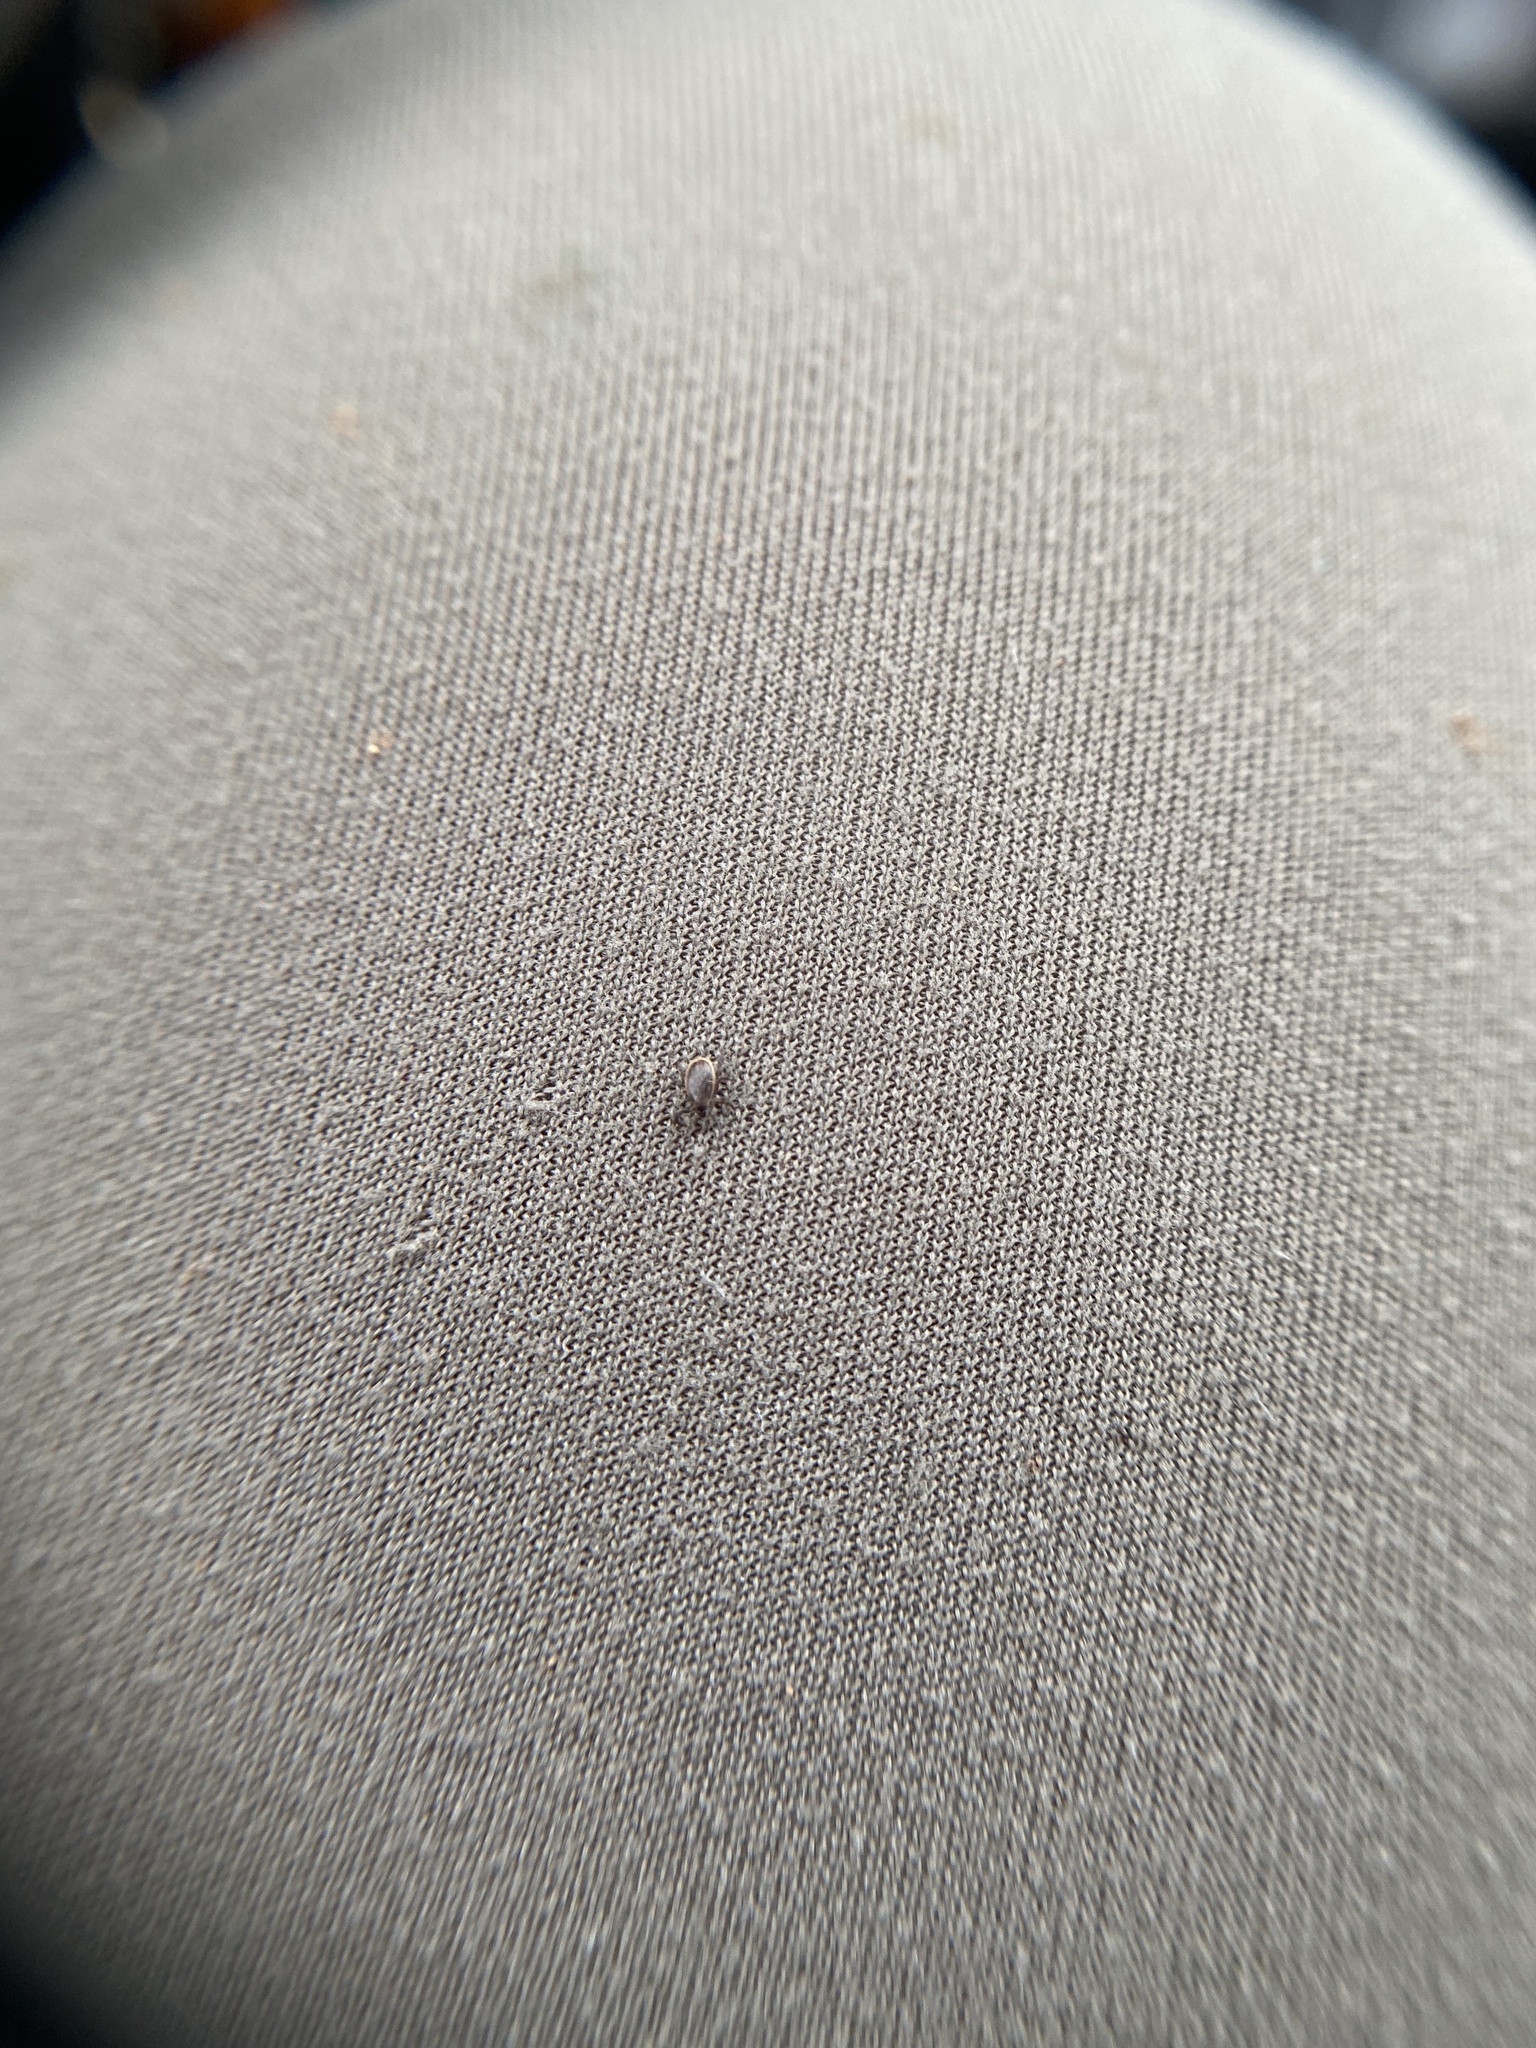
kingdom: Animalia
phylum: Arthropoda
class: Arachnida
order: Ixodida
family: Ixodidae
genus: Ixodes
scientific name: Ixodes scapularis
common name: Black legged tick
